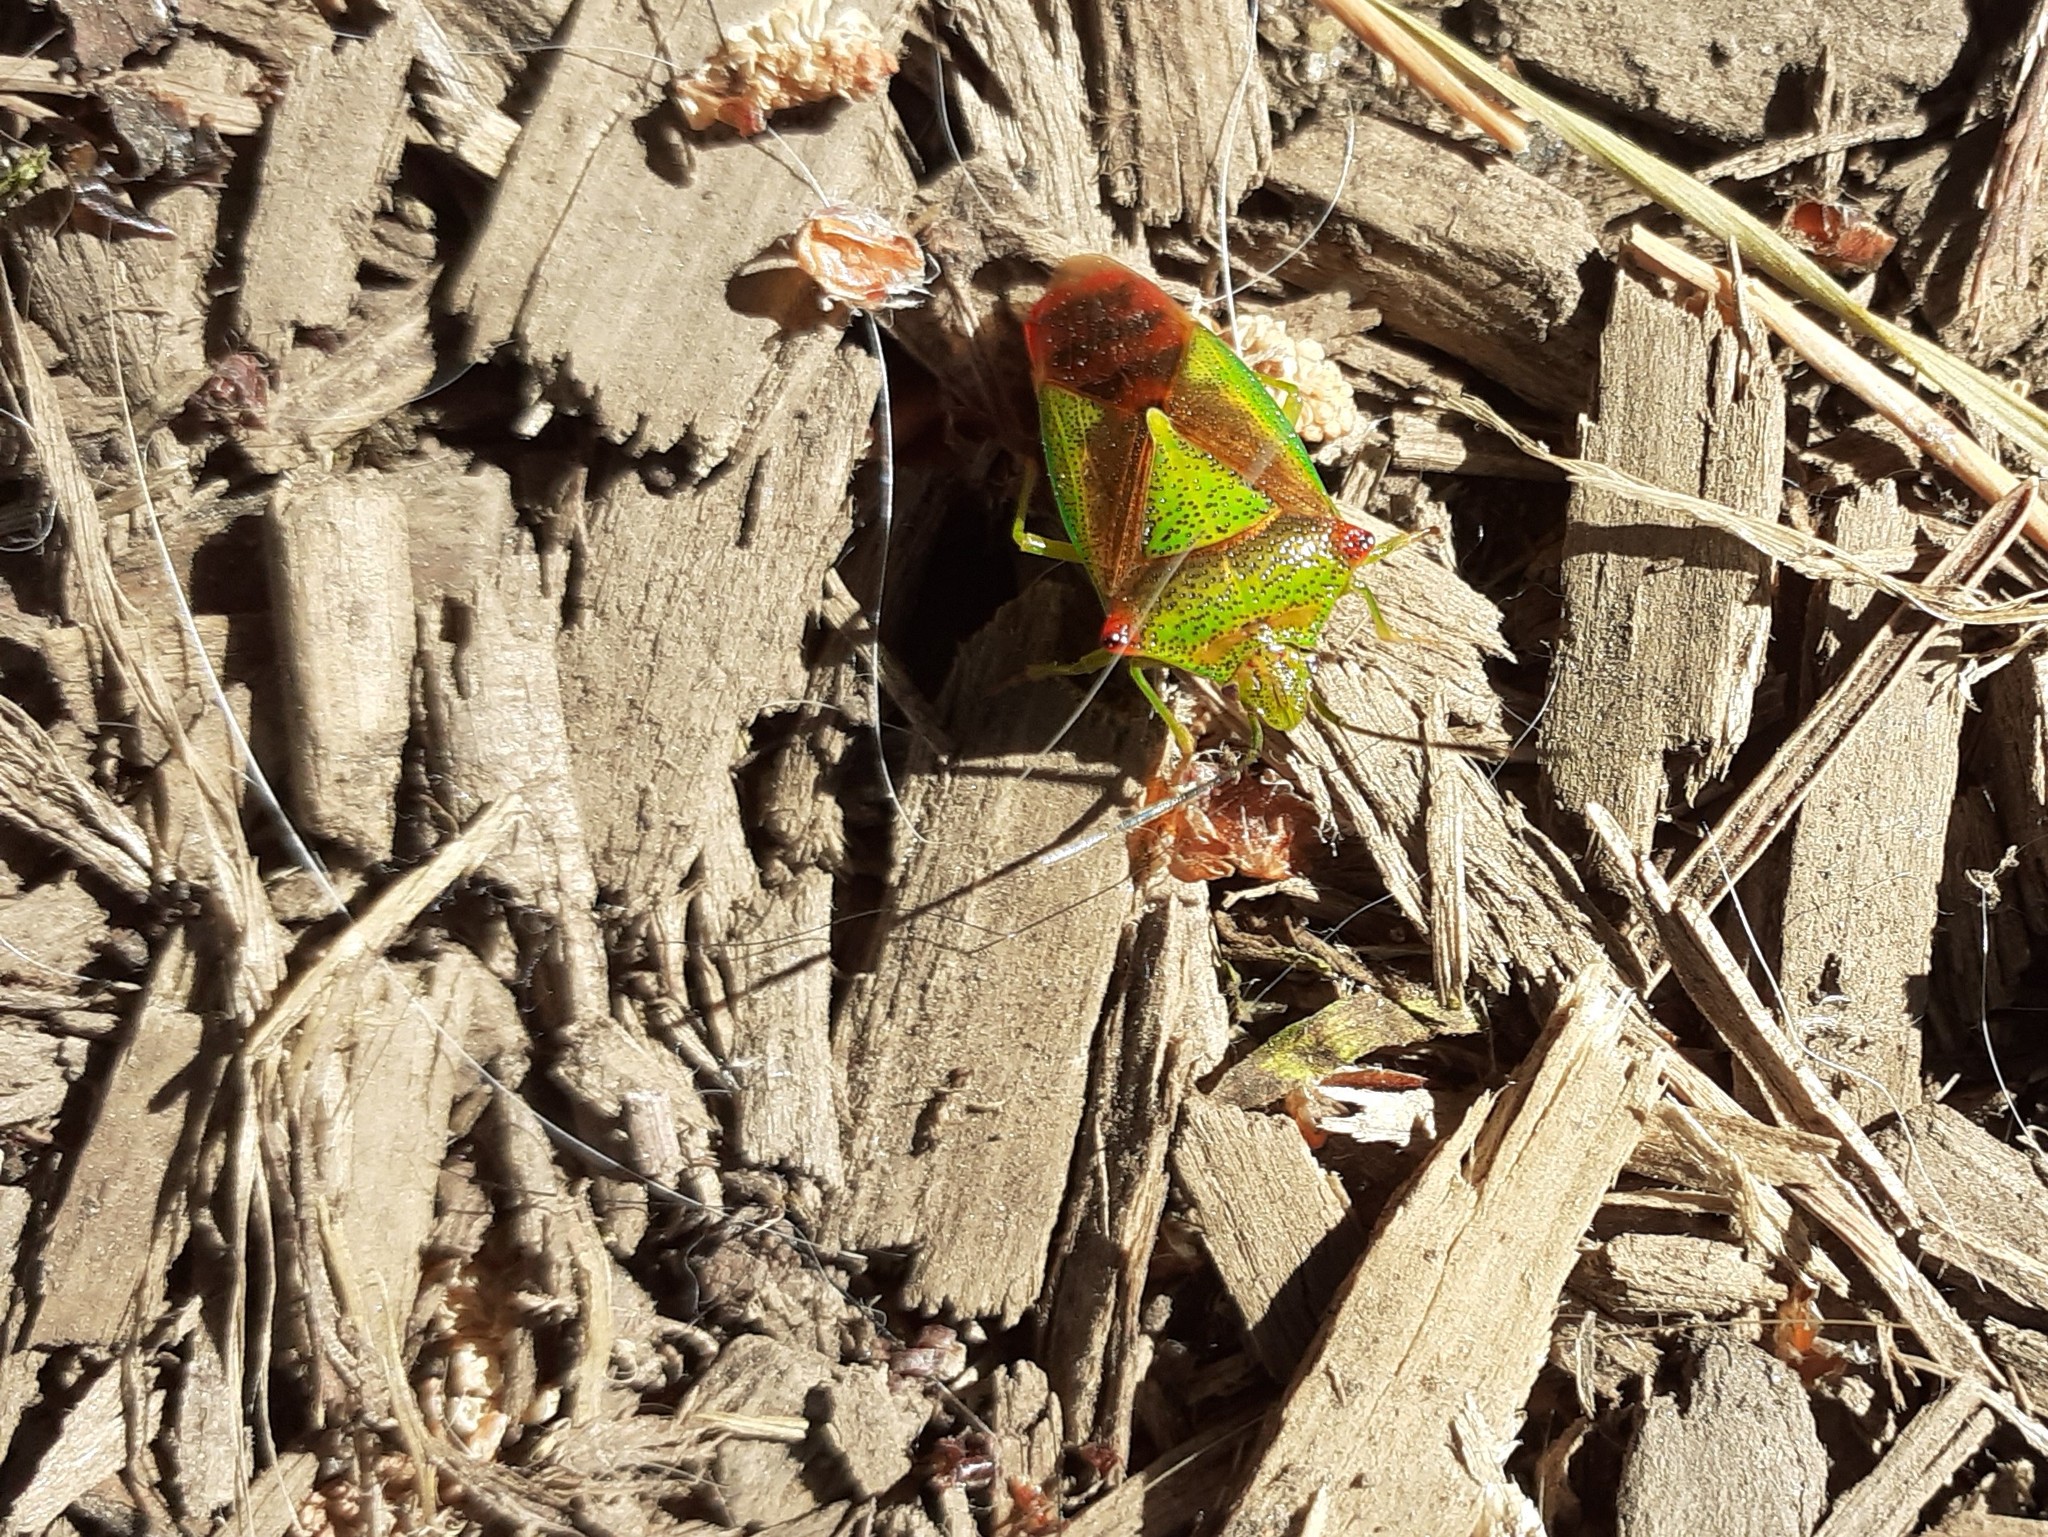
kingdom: Animalia
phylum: Arthropoda
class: Insecta
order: Hemiptera
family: Acanthosomatidae
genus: Acanthosoma
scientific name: Acanthosoma haemorrhoidale
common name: Hawthorn shieldbug
